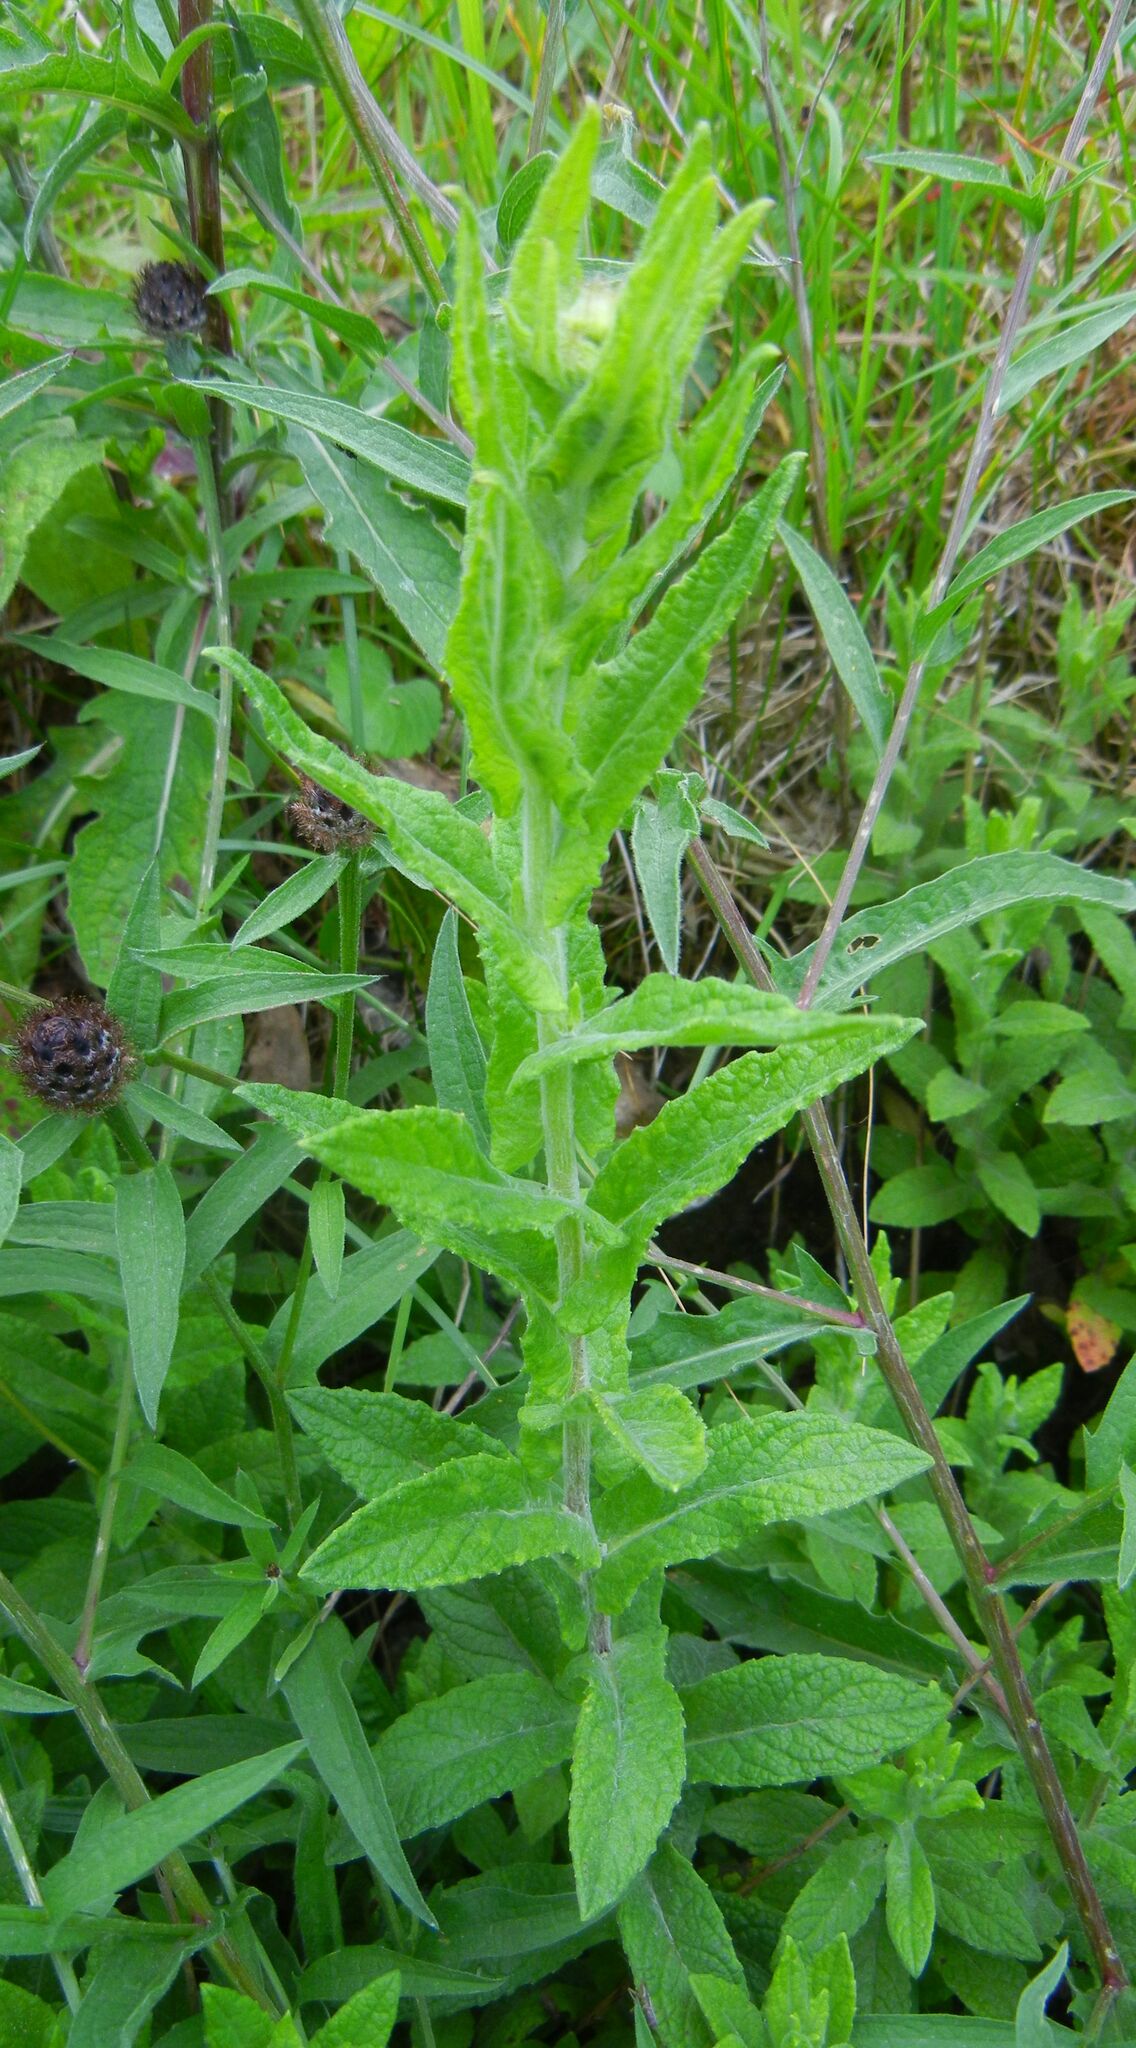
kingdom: Plantae
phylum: Tracheophyta
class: Magnoliopsida
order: Asterales
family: Asteraceae
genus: Pulicaria
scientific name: Pulicaria dysenterica
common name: Common fleabane
